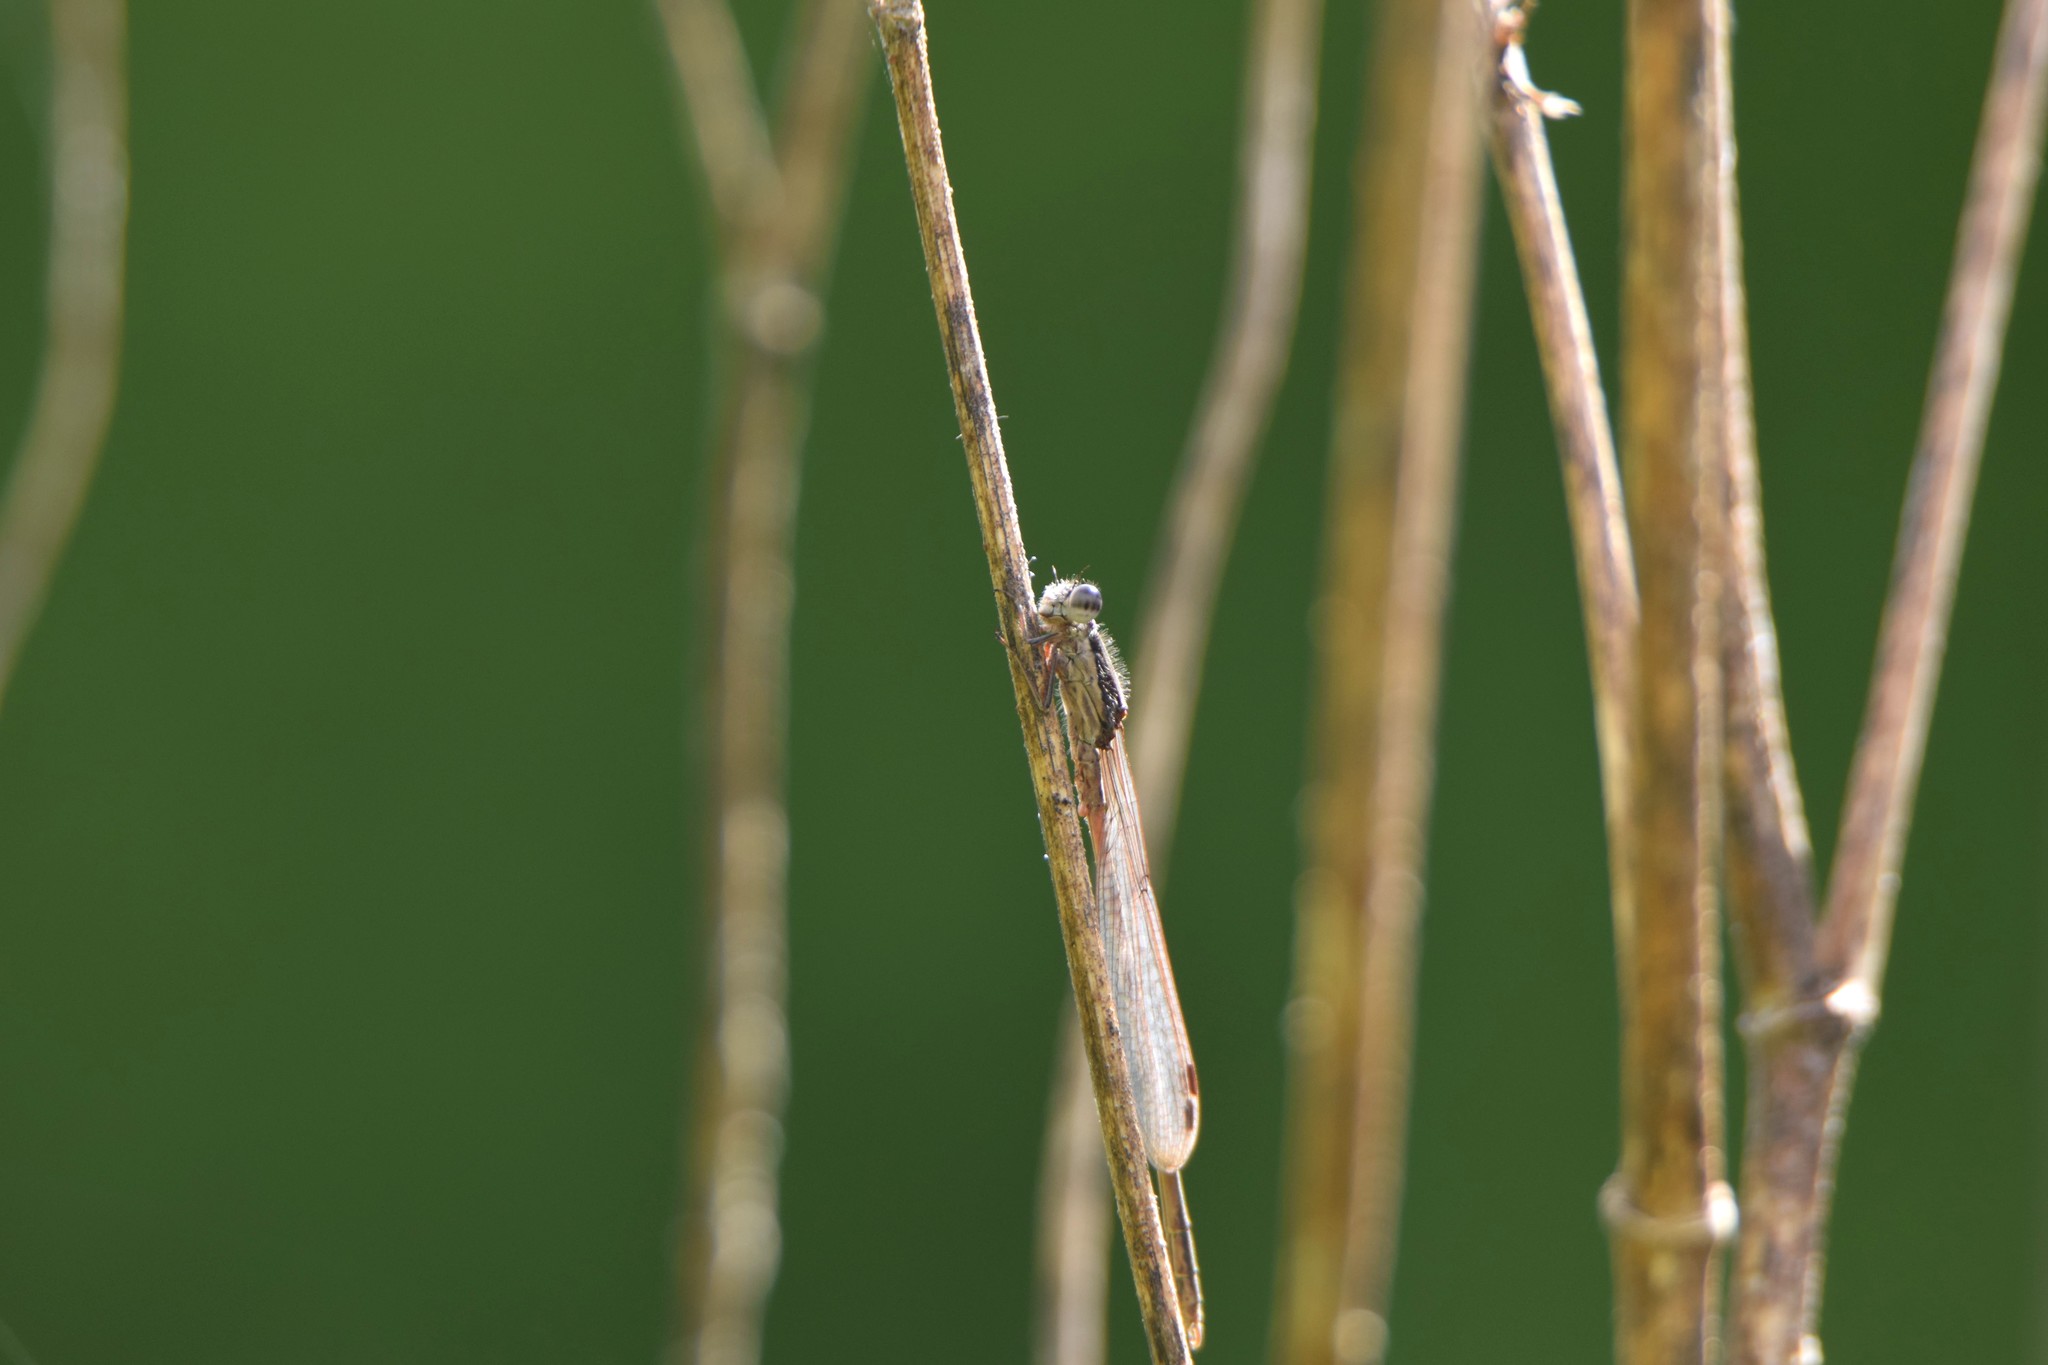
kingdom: Animalia
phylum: Arthropoda
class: Insecta
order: Odonata
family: Lestidae
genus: Sympecma
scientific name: Sympecma fusca
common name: Common winter damsel
